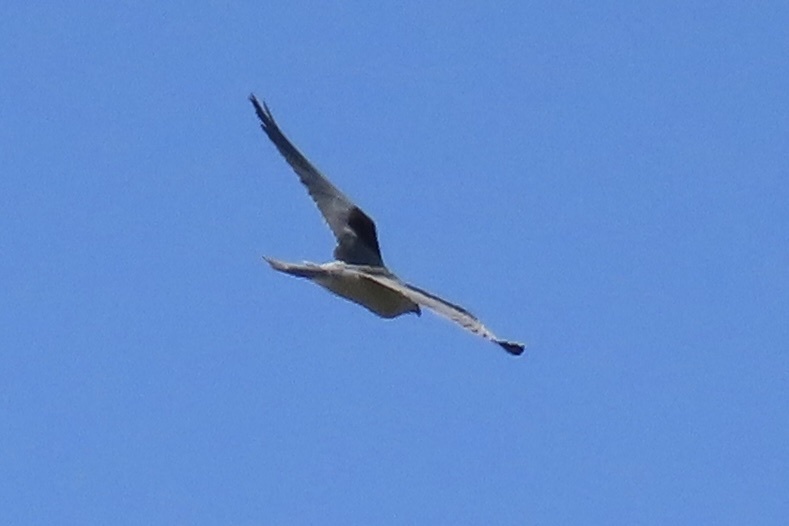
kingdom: Animalia
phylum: Chordata
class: Aves
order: Accipitriformes
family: Accipitridae
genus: Elanus
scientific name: Elanus leucurus
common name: White-tailed kite
